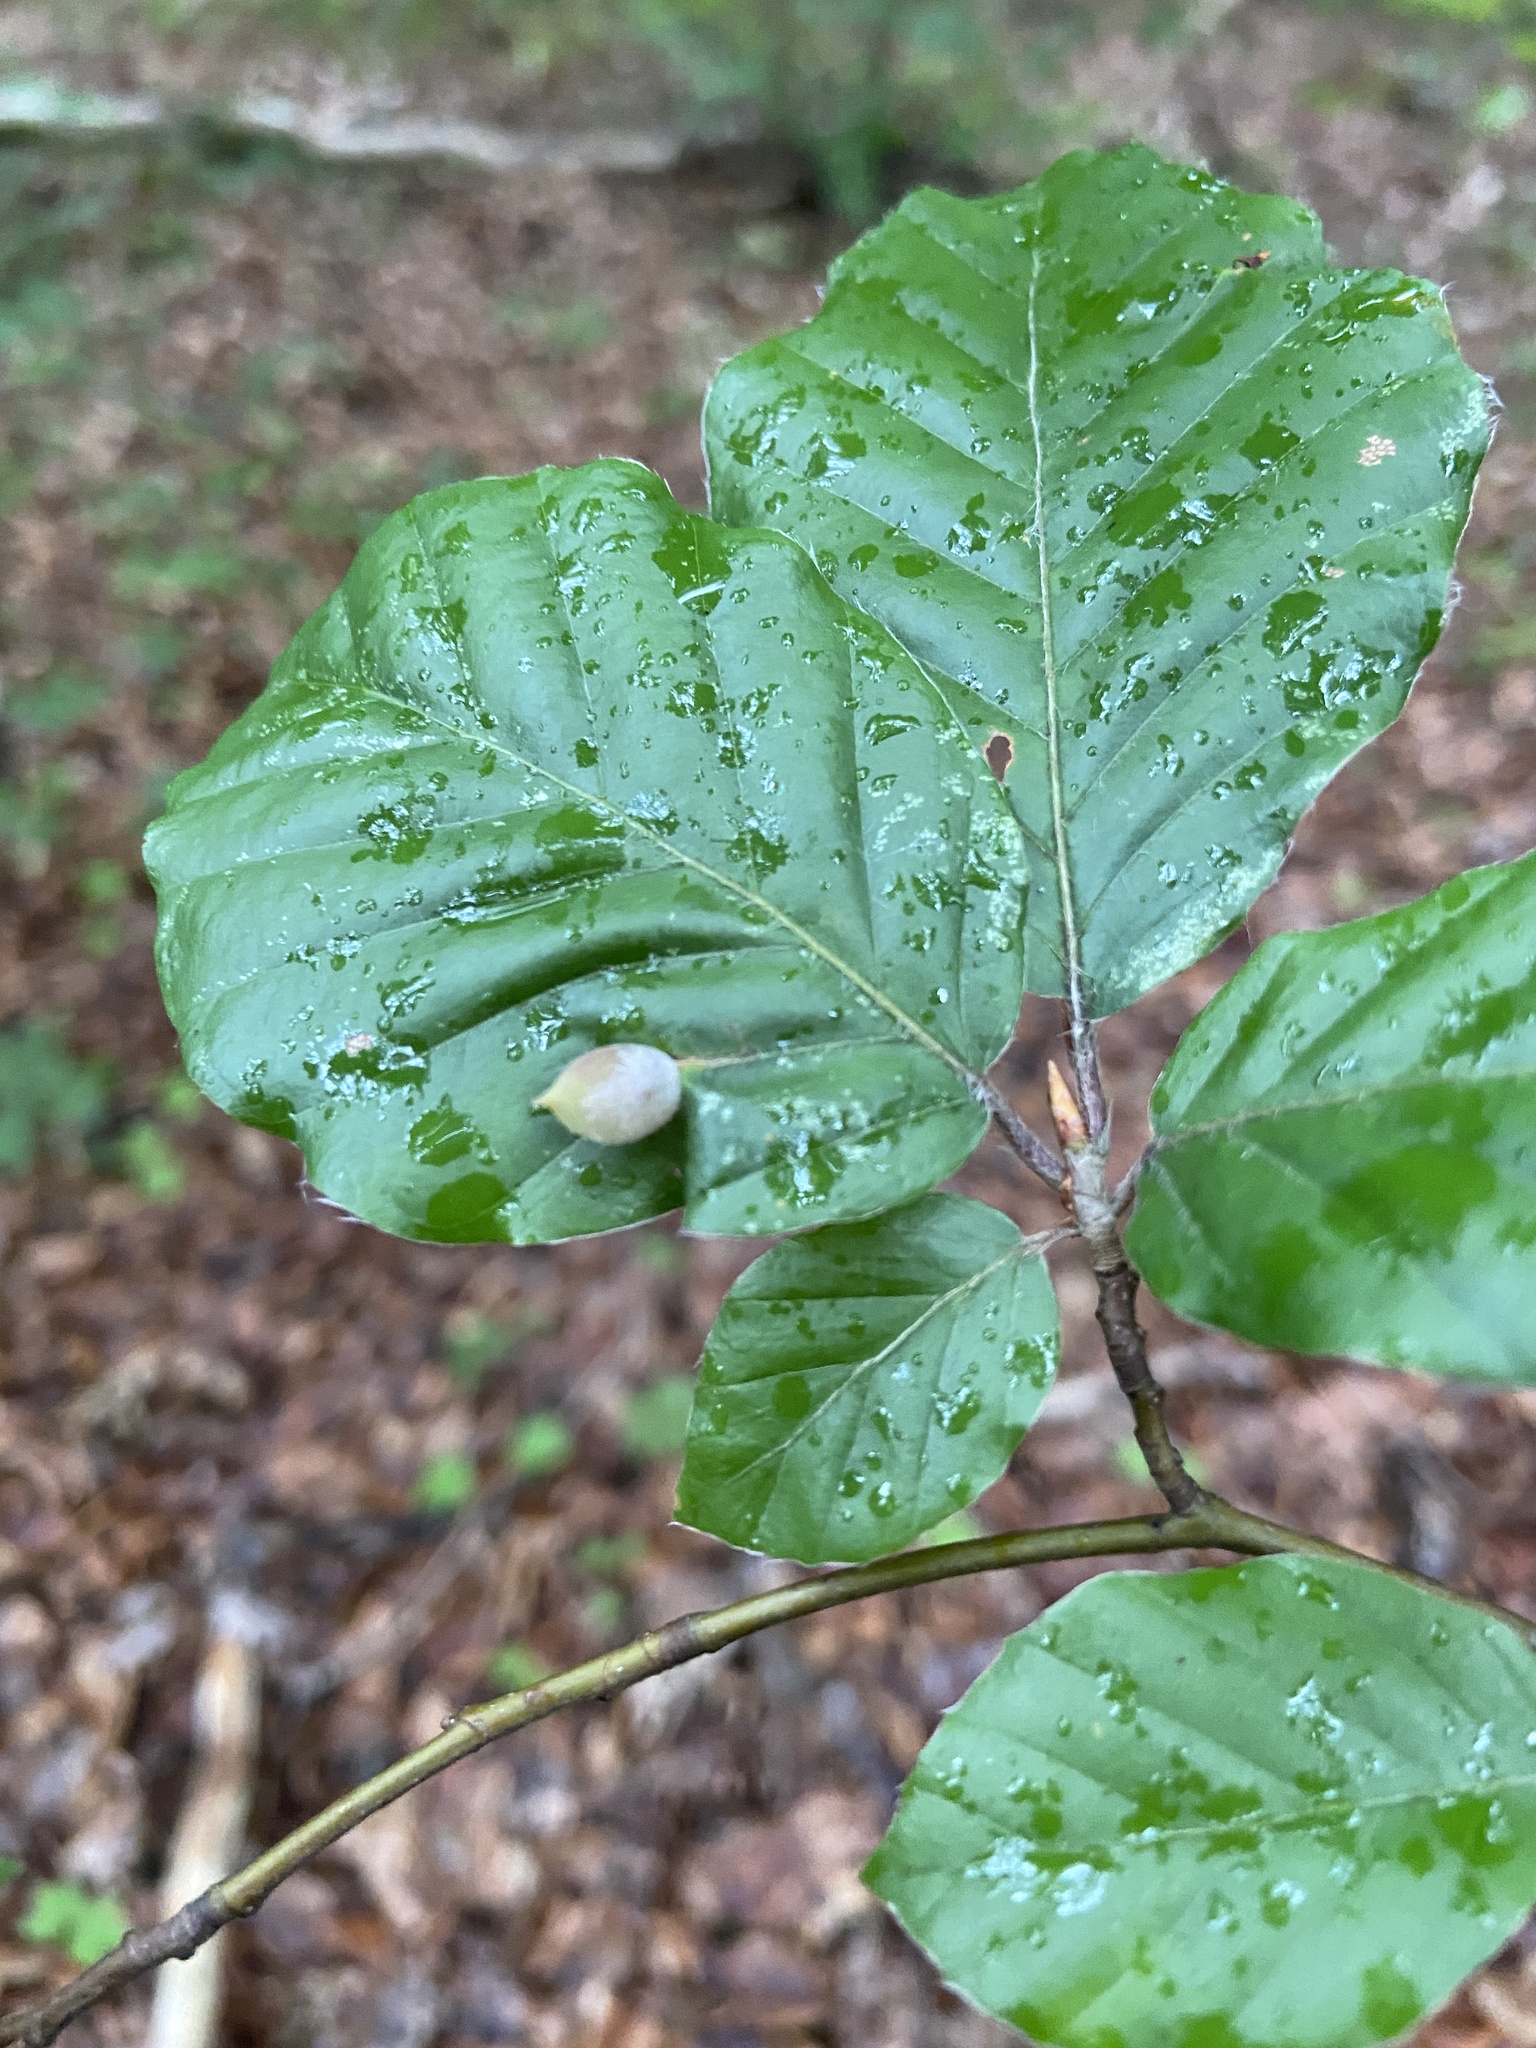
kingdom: Animalia
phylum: Arthropoda
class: Insecta
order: Diptera
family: Cecidomyiidae
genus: Mikiola
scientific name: Mikiola fagi
